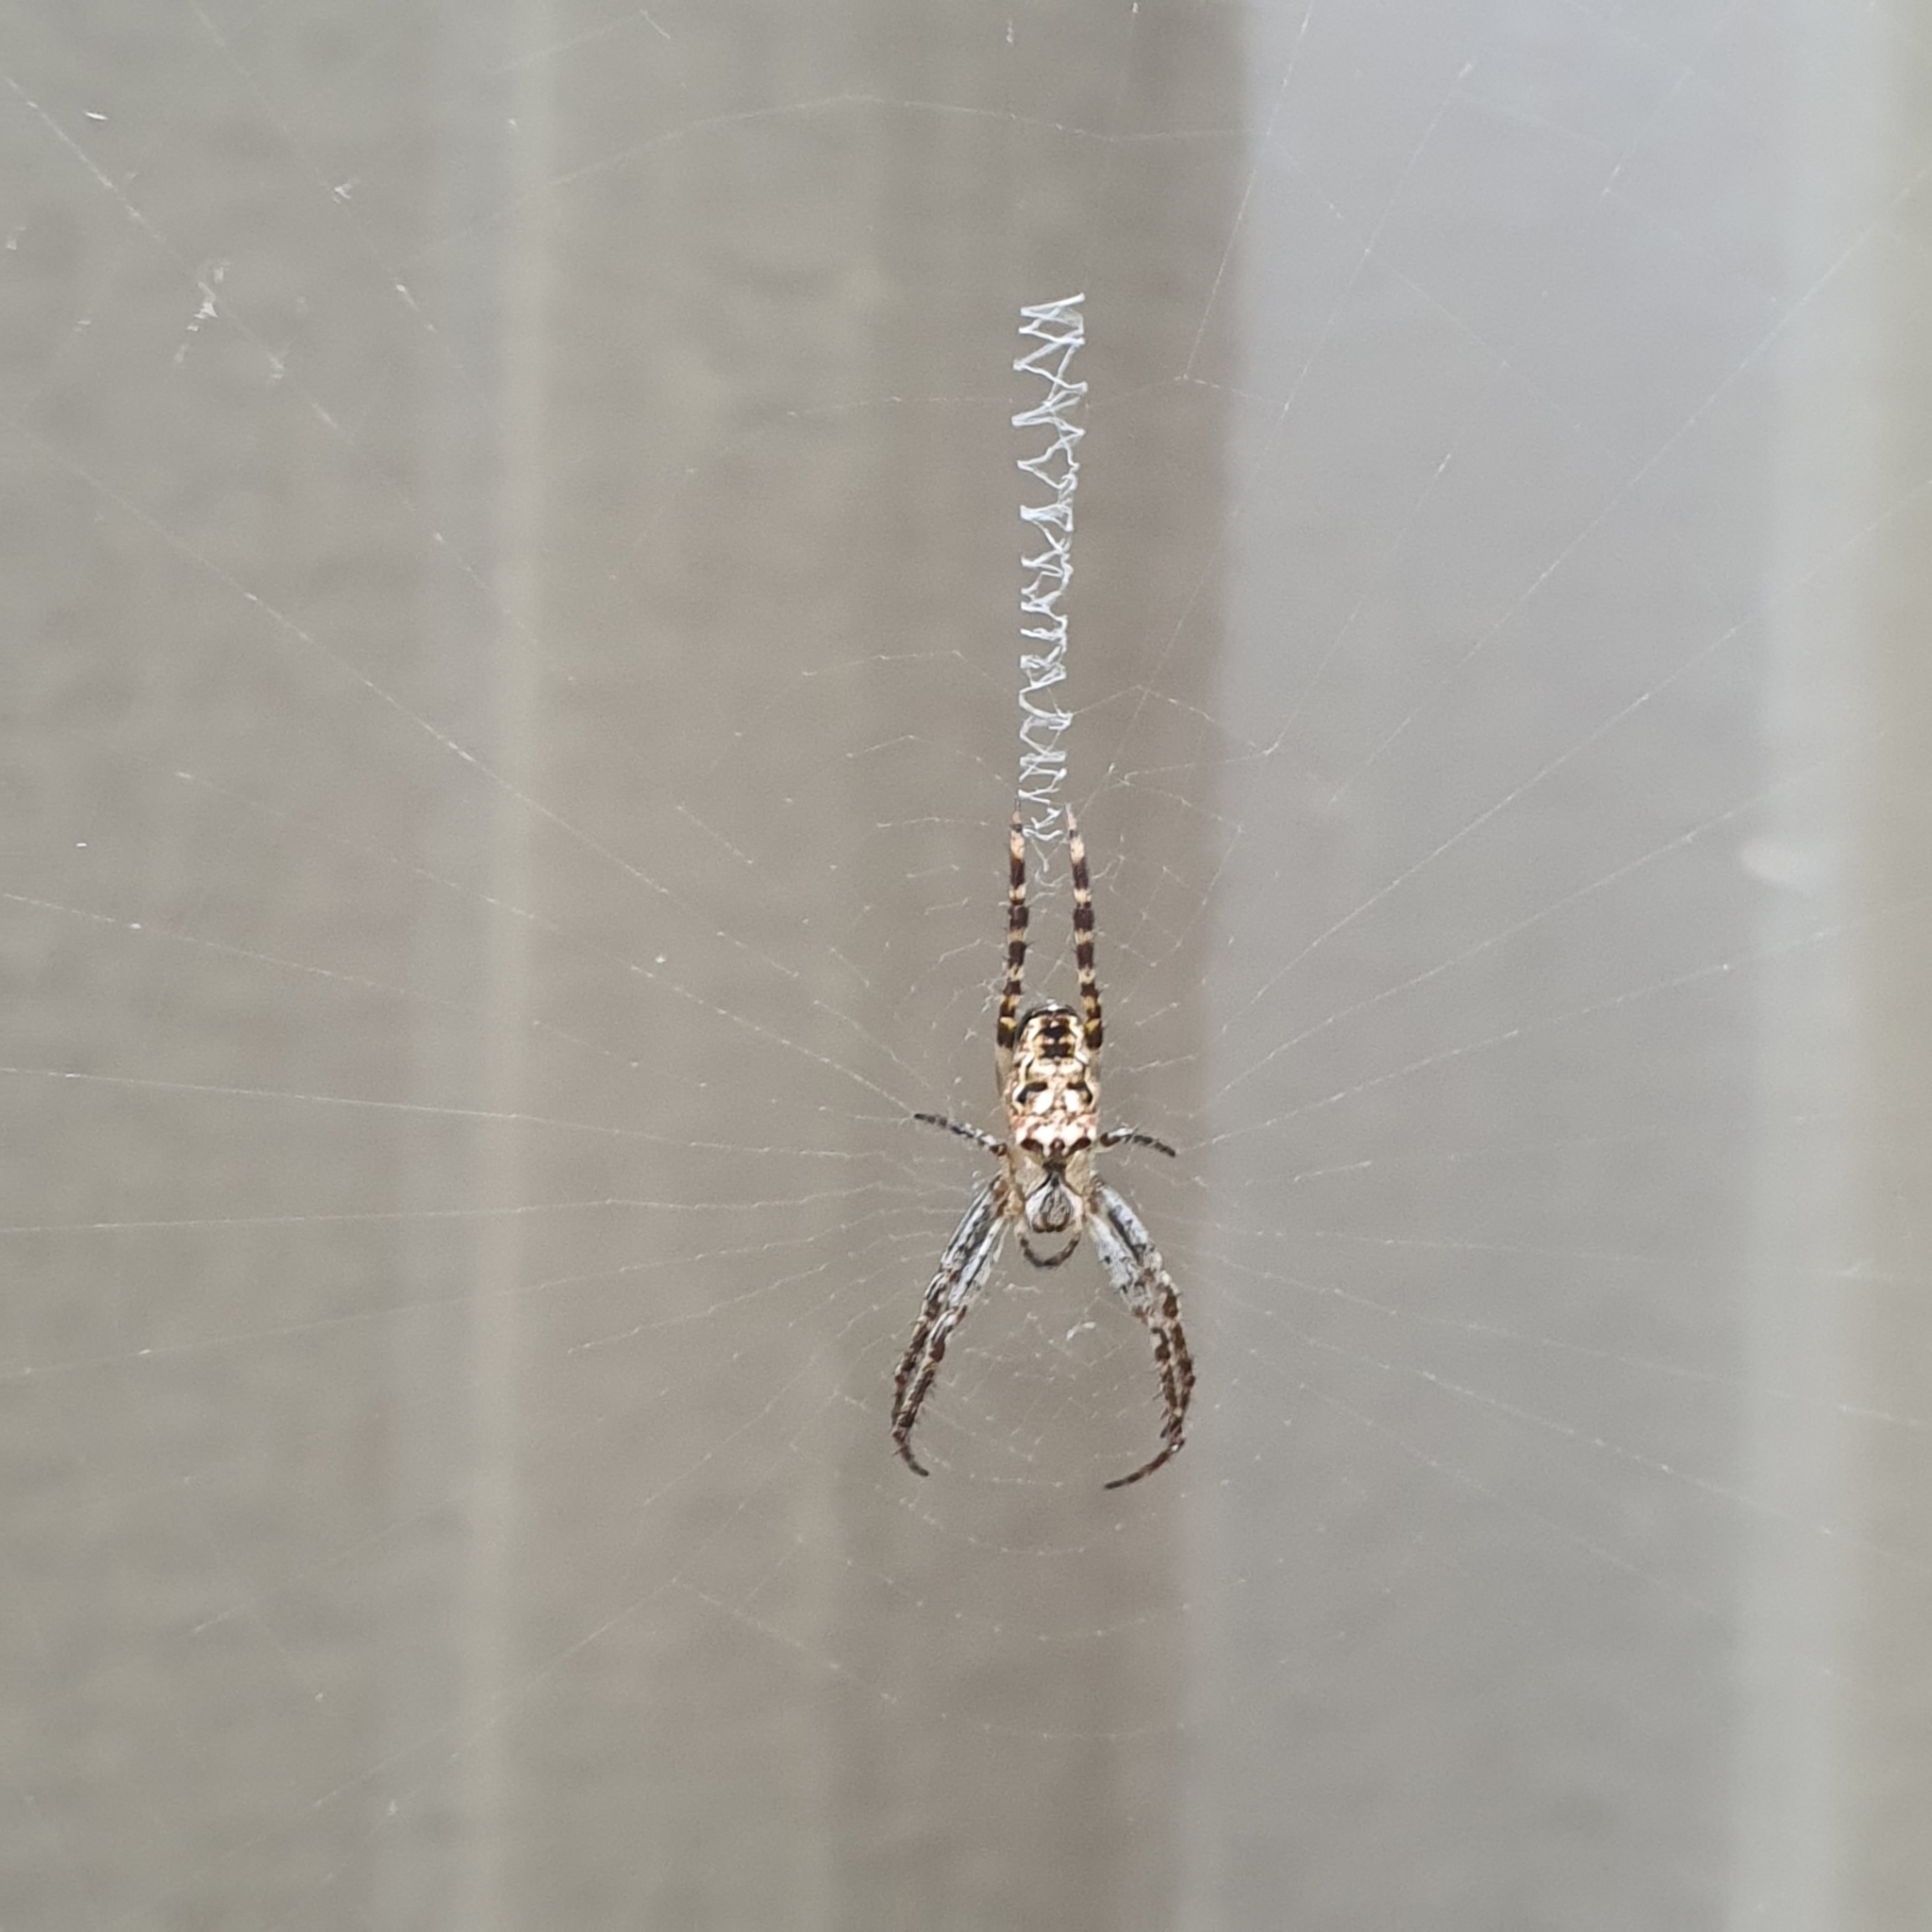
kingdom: Animalia
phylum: Arthropoda
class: Arachnida
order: Araneae
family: Araneidae
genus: Plebs
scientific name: Plebs eburnus
